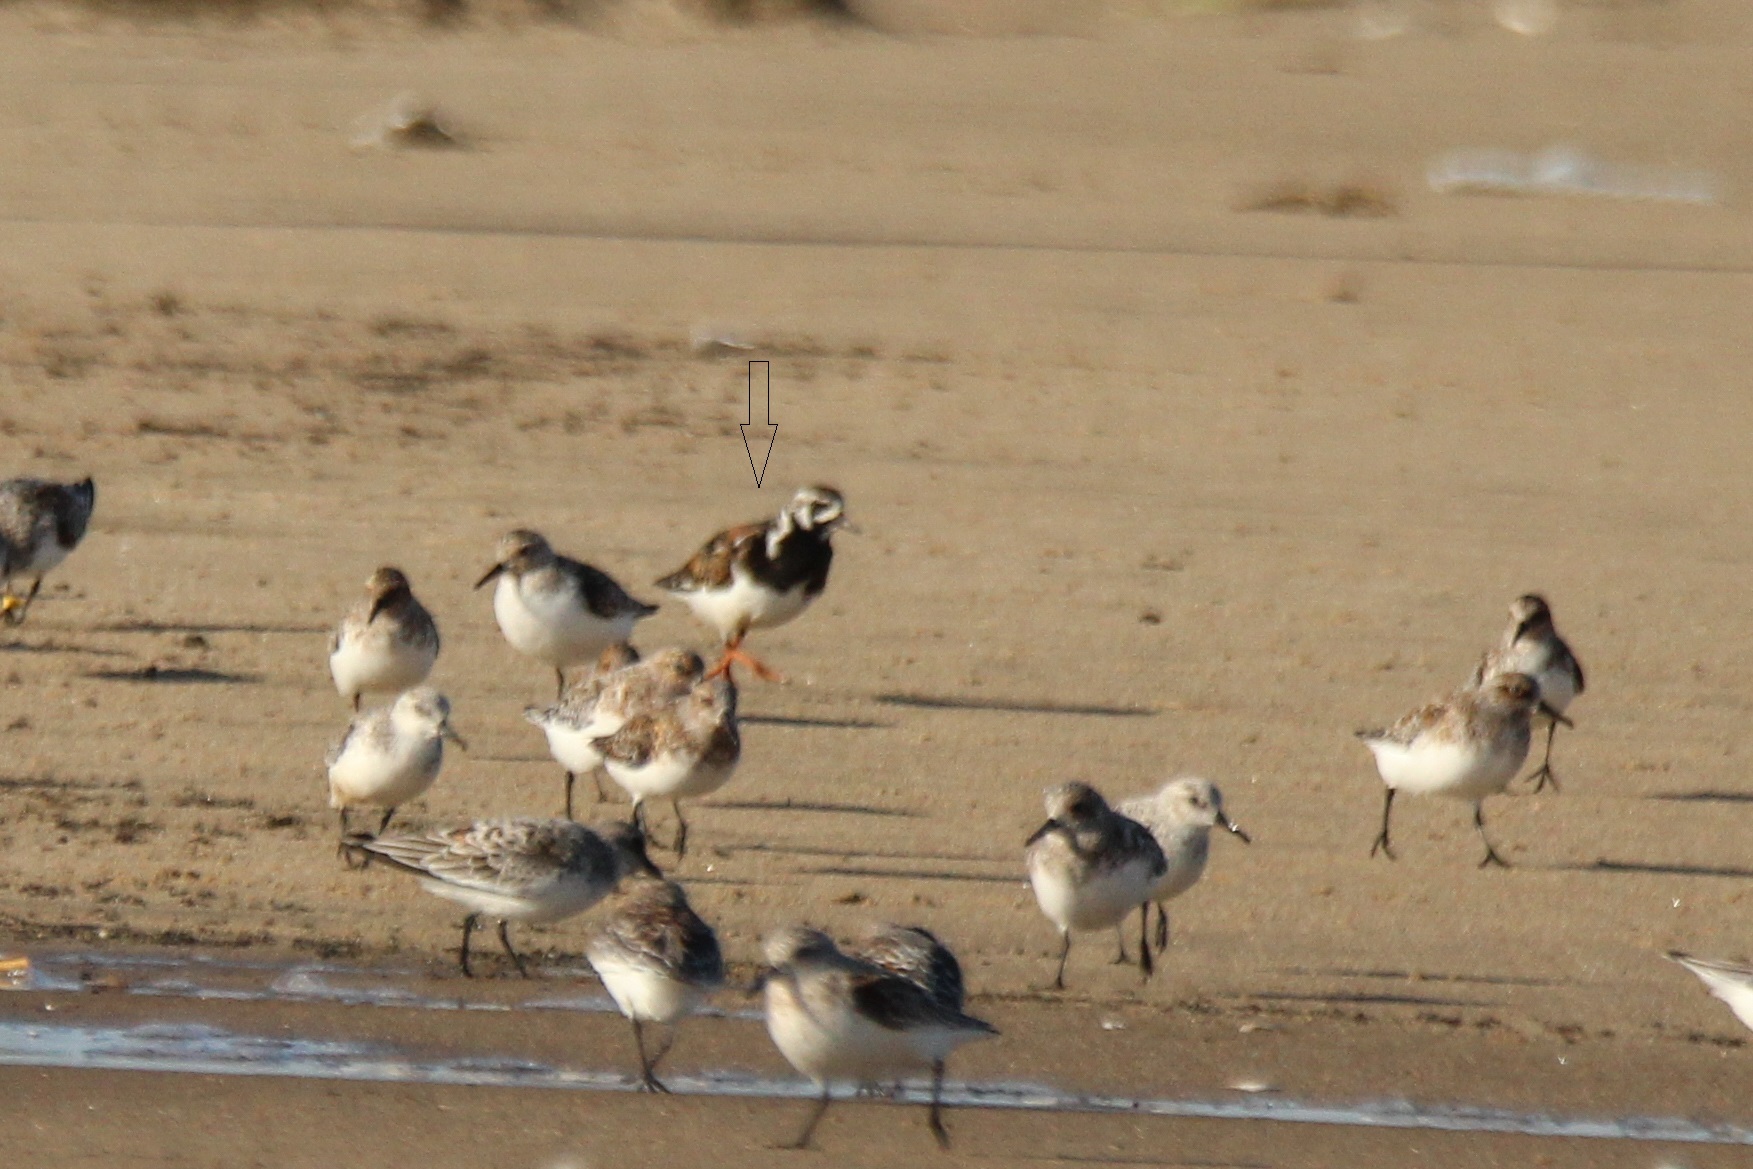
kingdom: Animalia
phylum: Chordata
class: Aves
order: Charadriiformes
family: Scolopacidae
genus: Arenaria
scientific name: Arenaria interpres
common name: Ruddy turnstone
